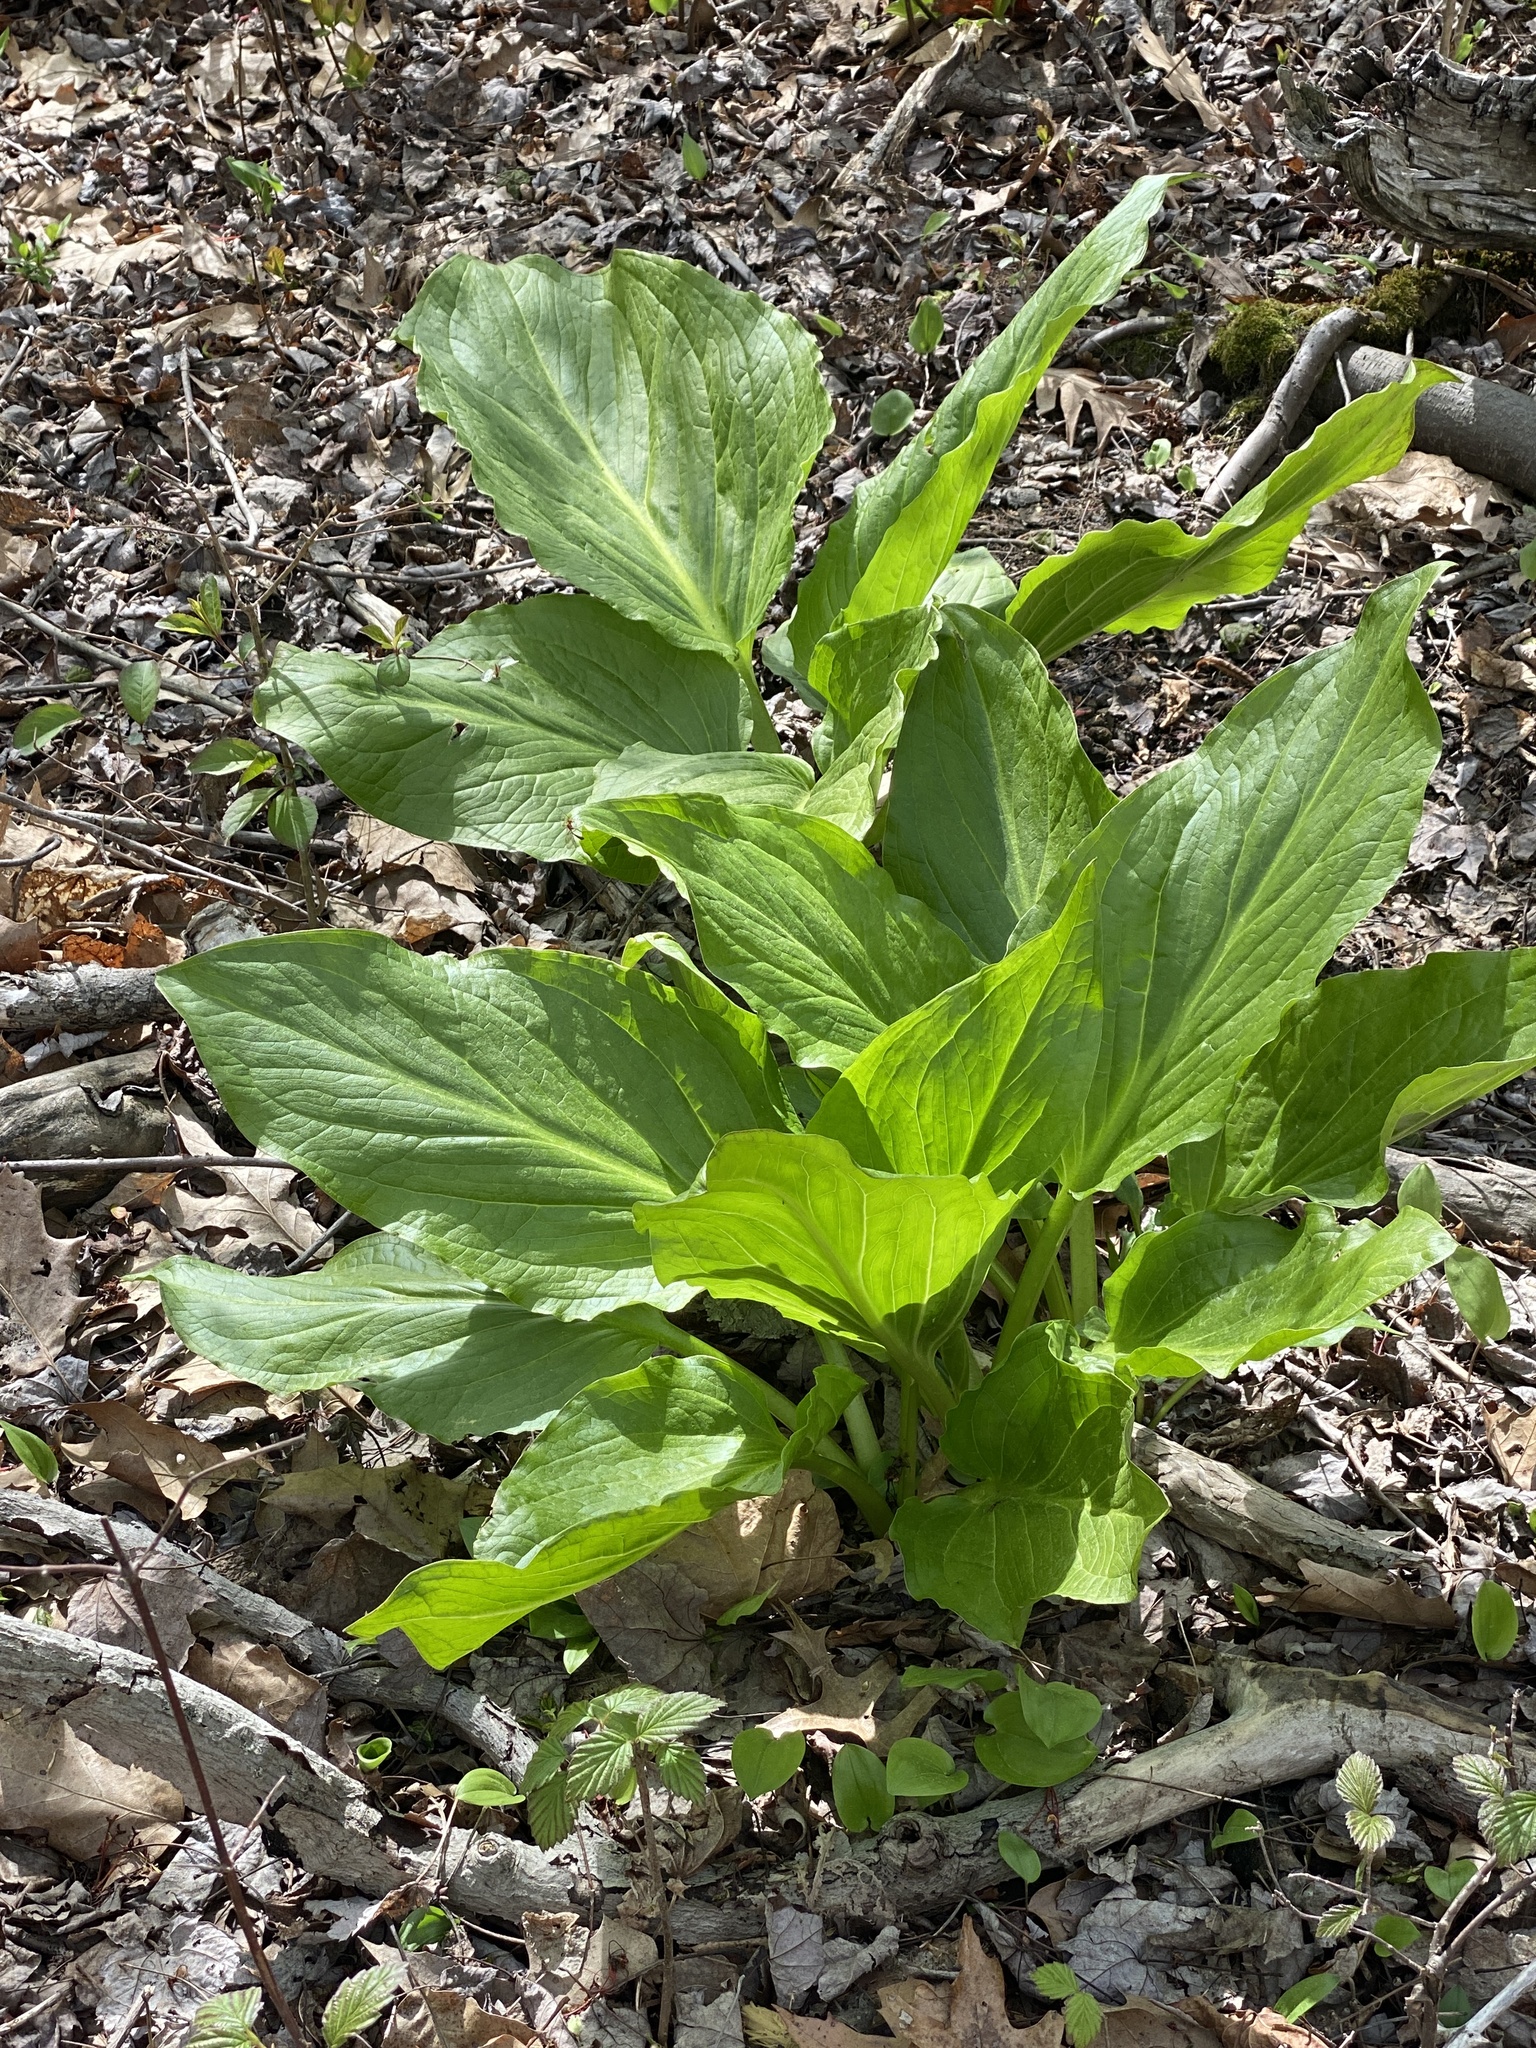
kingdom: Plantae
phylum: Tracheophyta
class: Liliopsida
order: Alismatales
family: Araceae
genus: Symplocarpus
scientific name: Symplocarpus foetidus
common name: Eastern skunk cabbage
